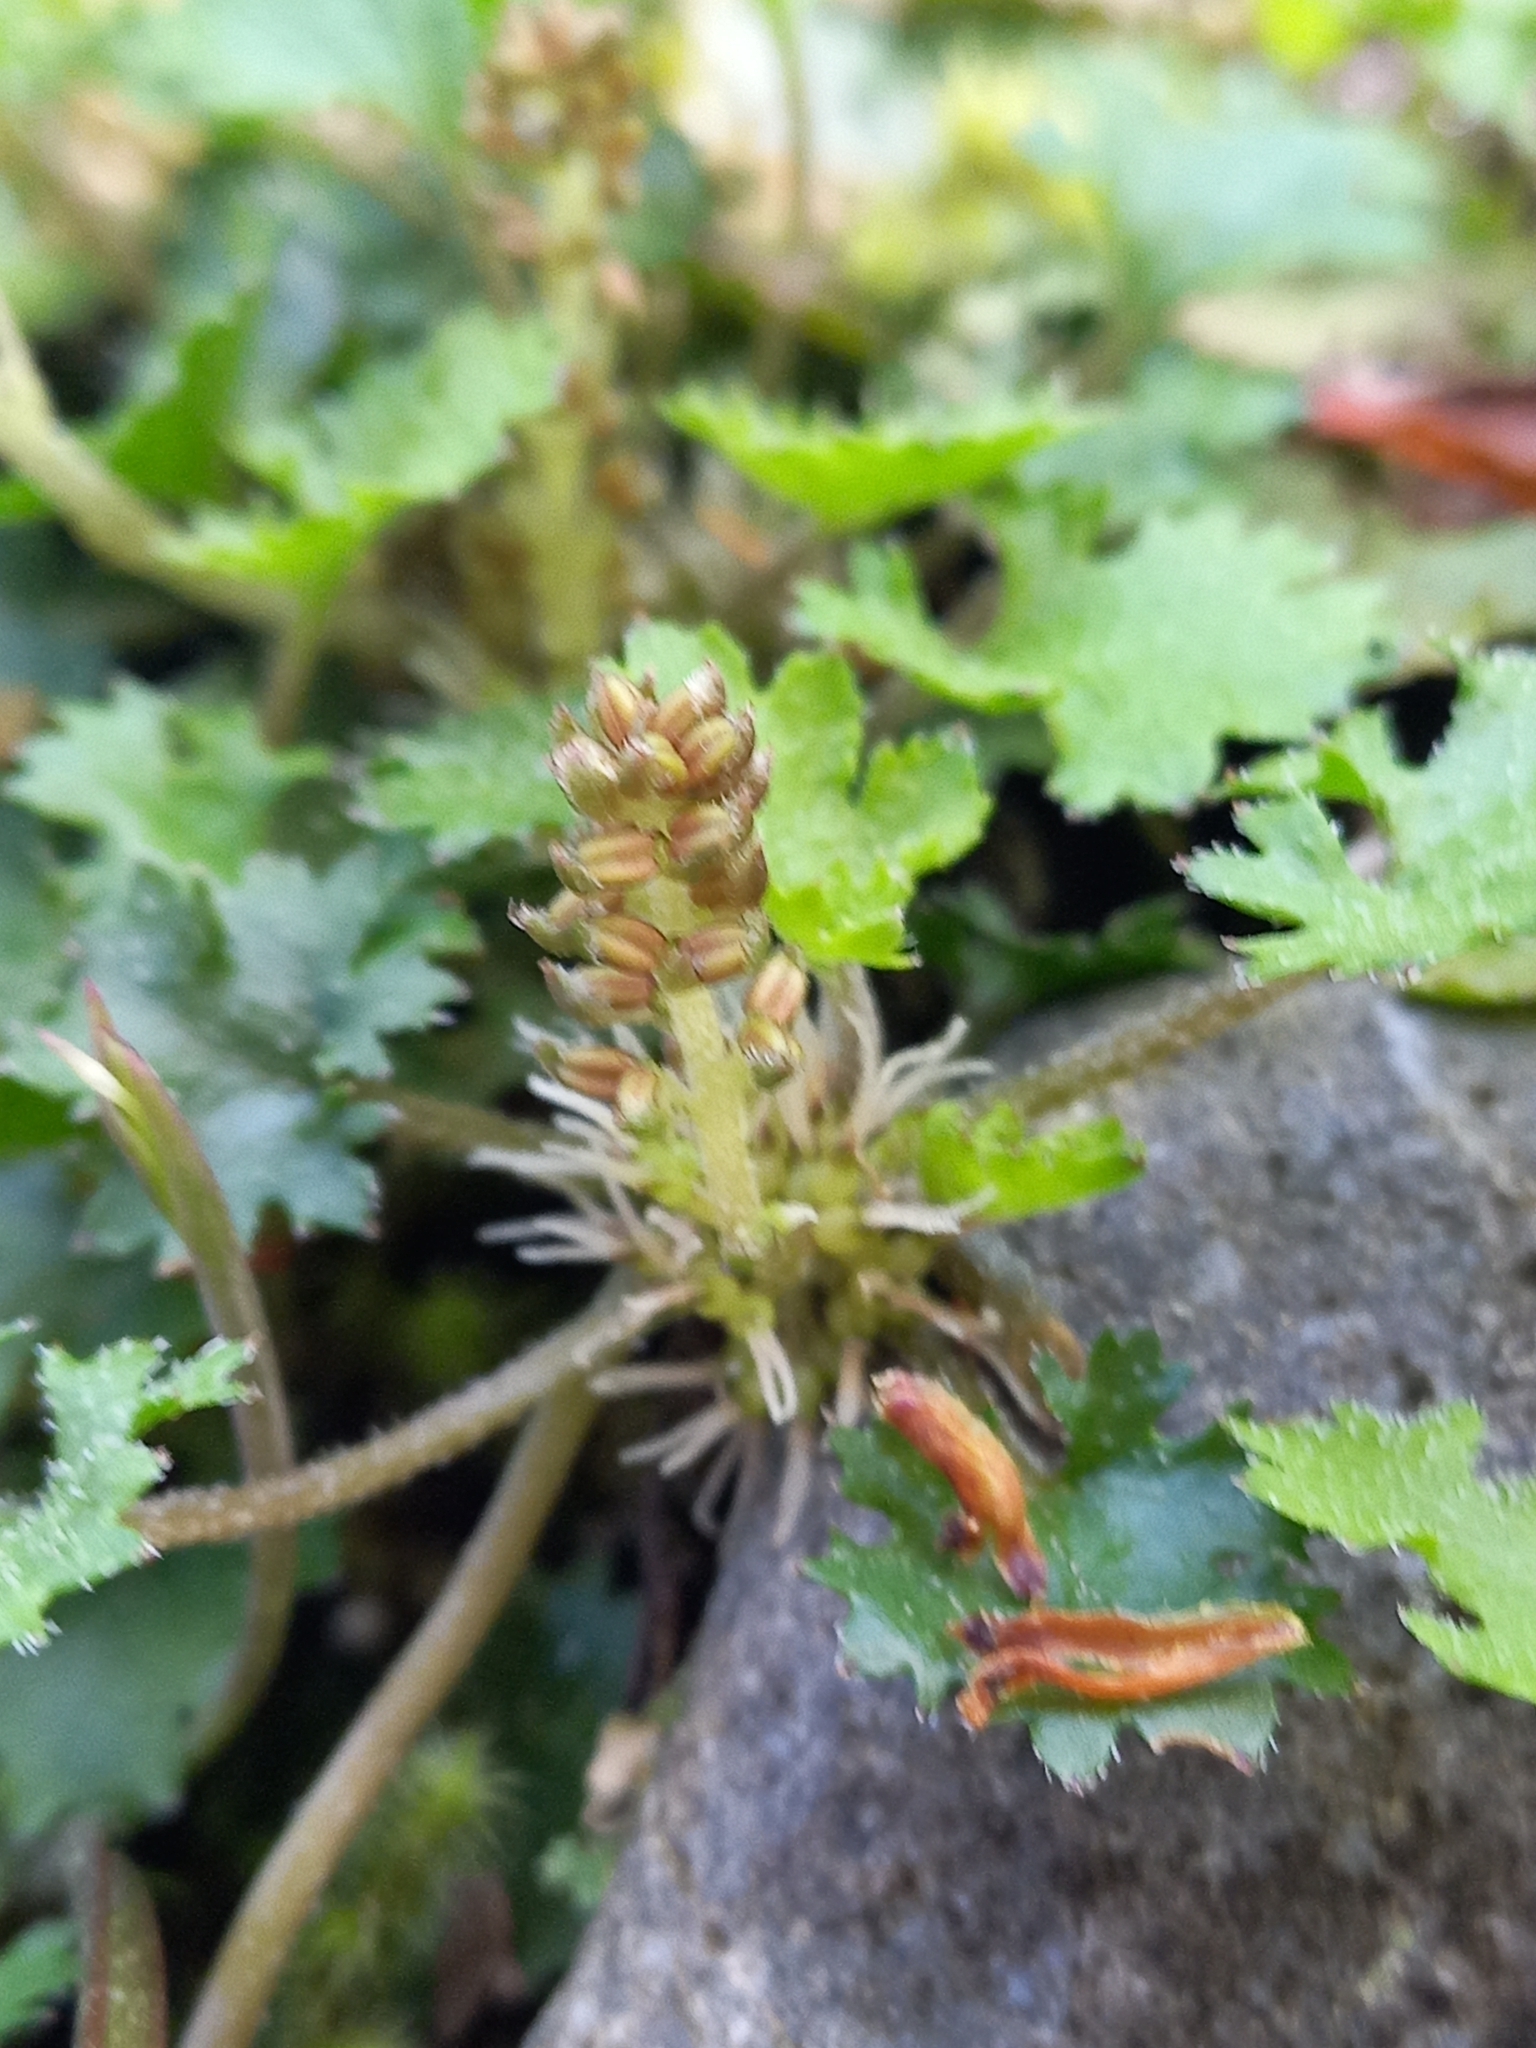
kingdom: Plantae
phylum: Tracheophyta
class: Magnoliopsida
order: Gunnerales
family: Gunneraceae
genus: Gunnera
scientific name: Gunnera monoica
